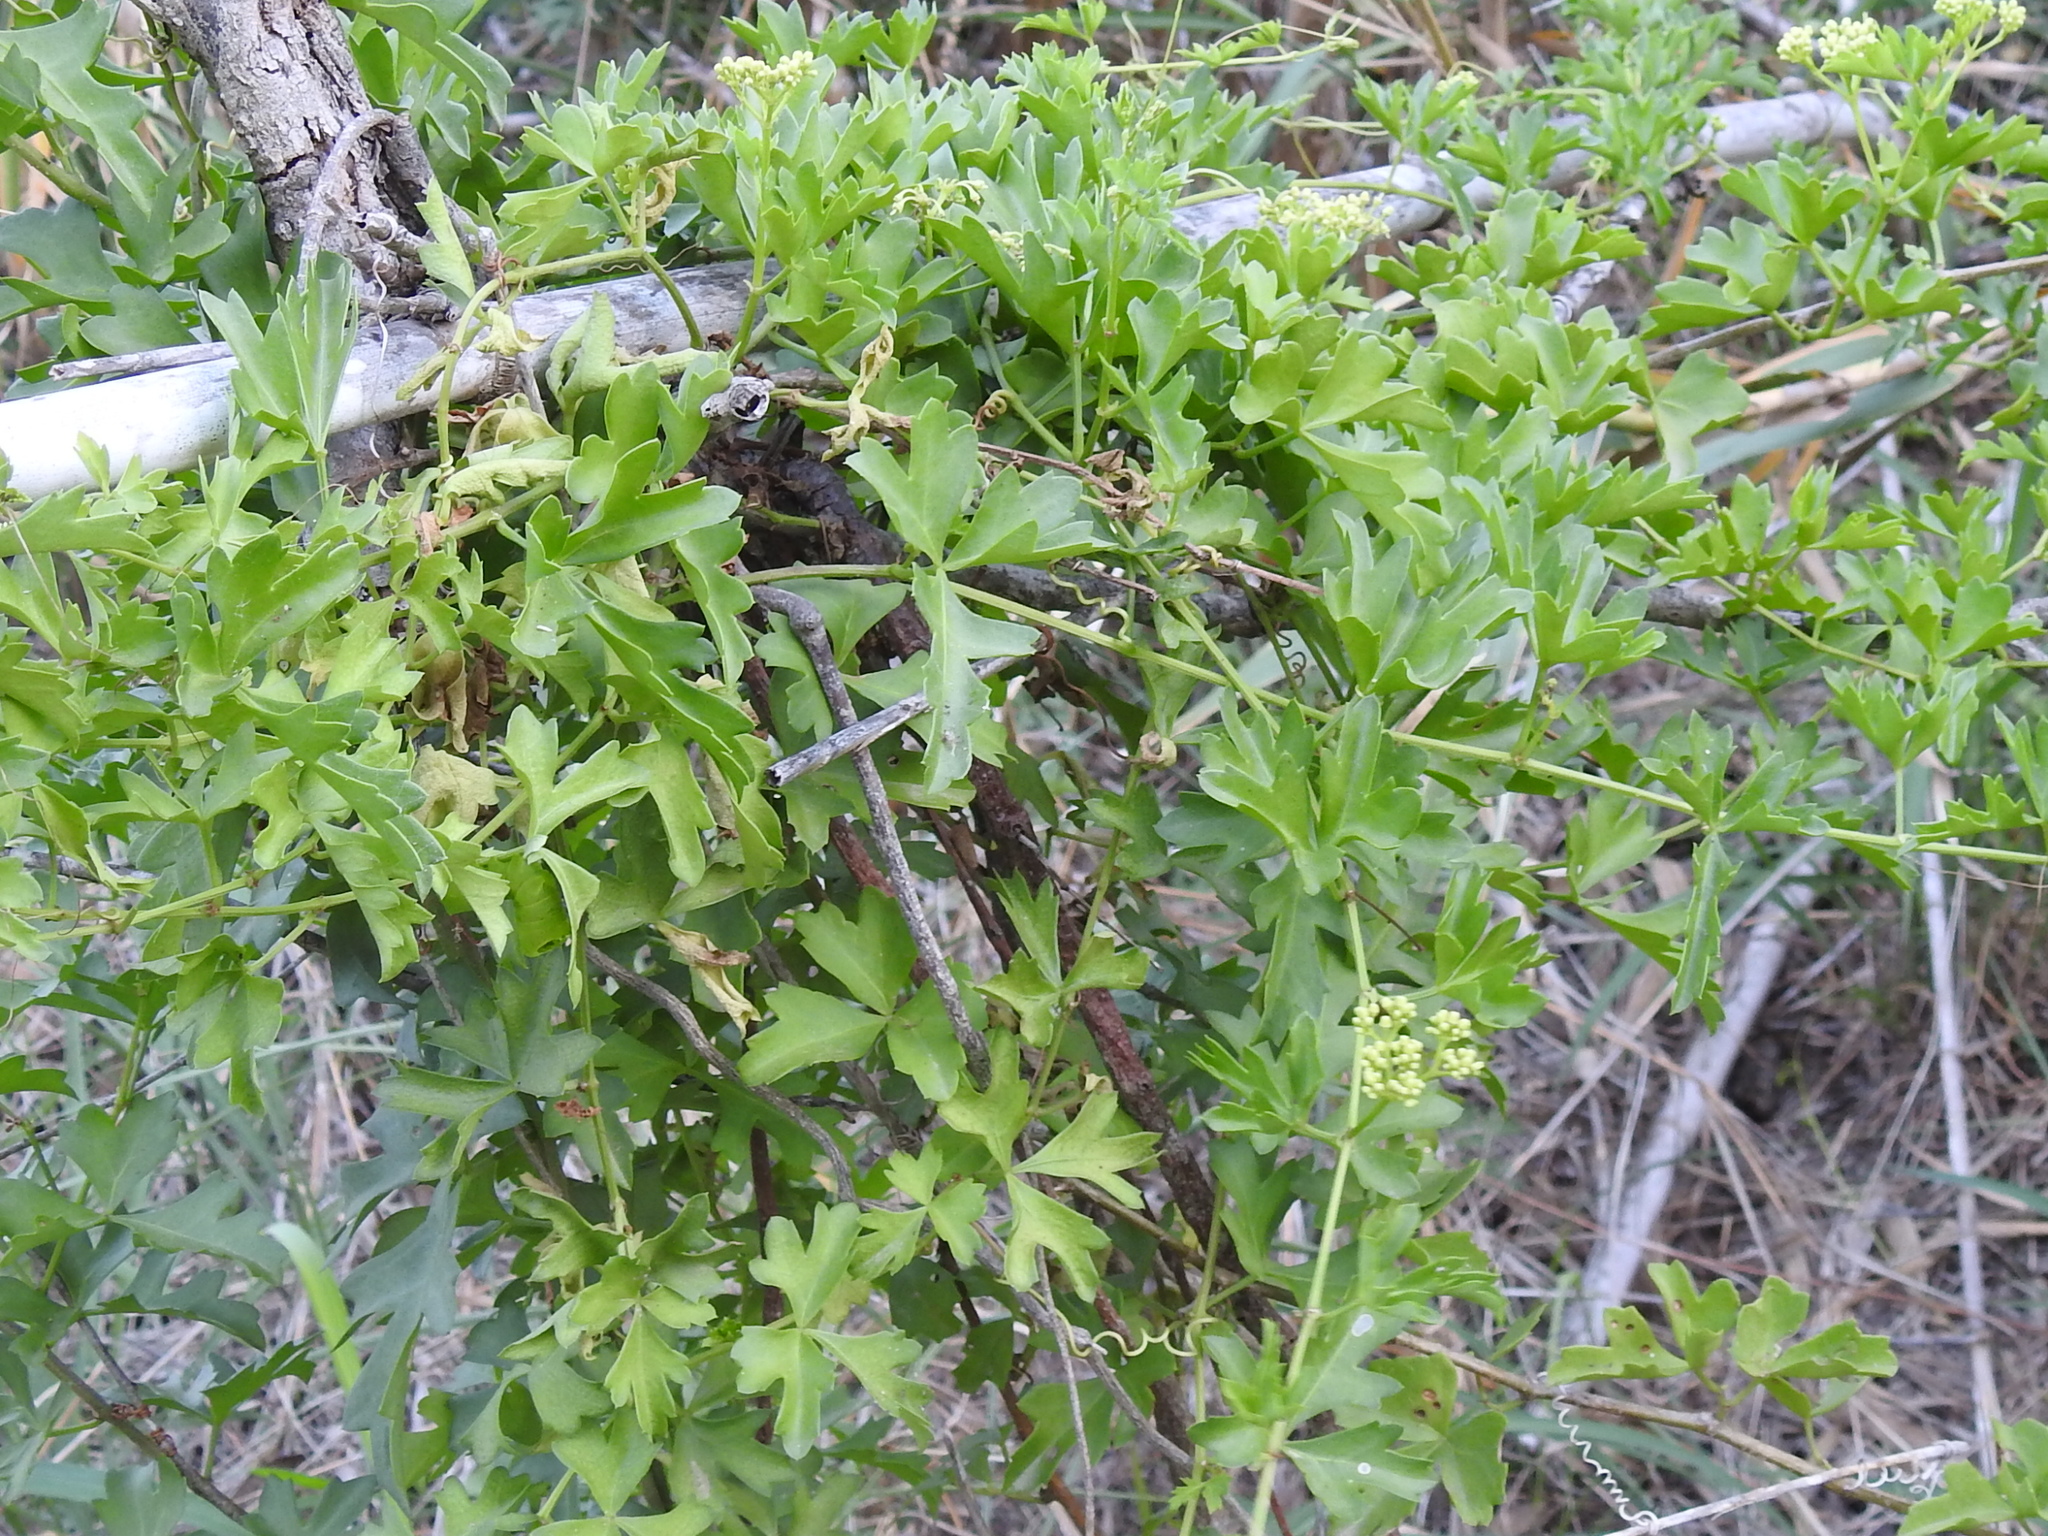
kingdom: Plantae
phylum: Tracheophyta
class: Magnoliopsida
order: Vitales
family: Vitaceae
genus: Cissus
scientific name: Cissus trifoliata
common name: Vine-sorrel
